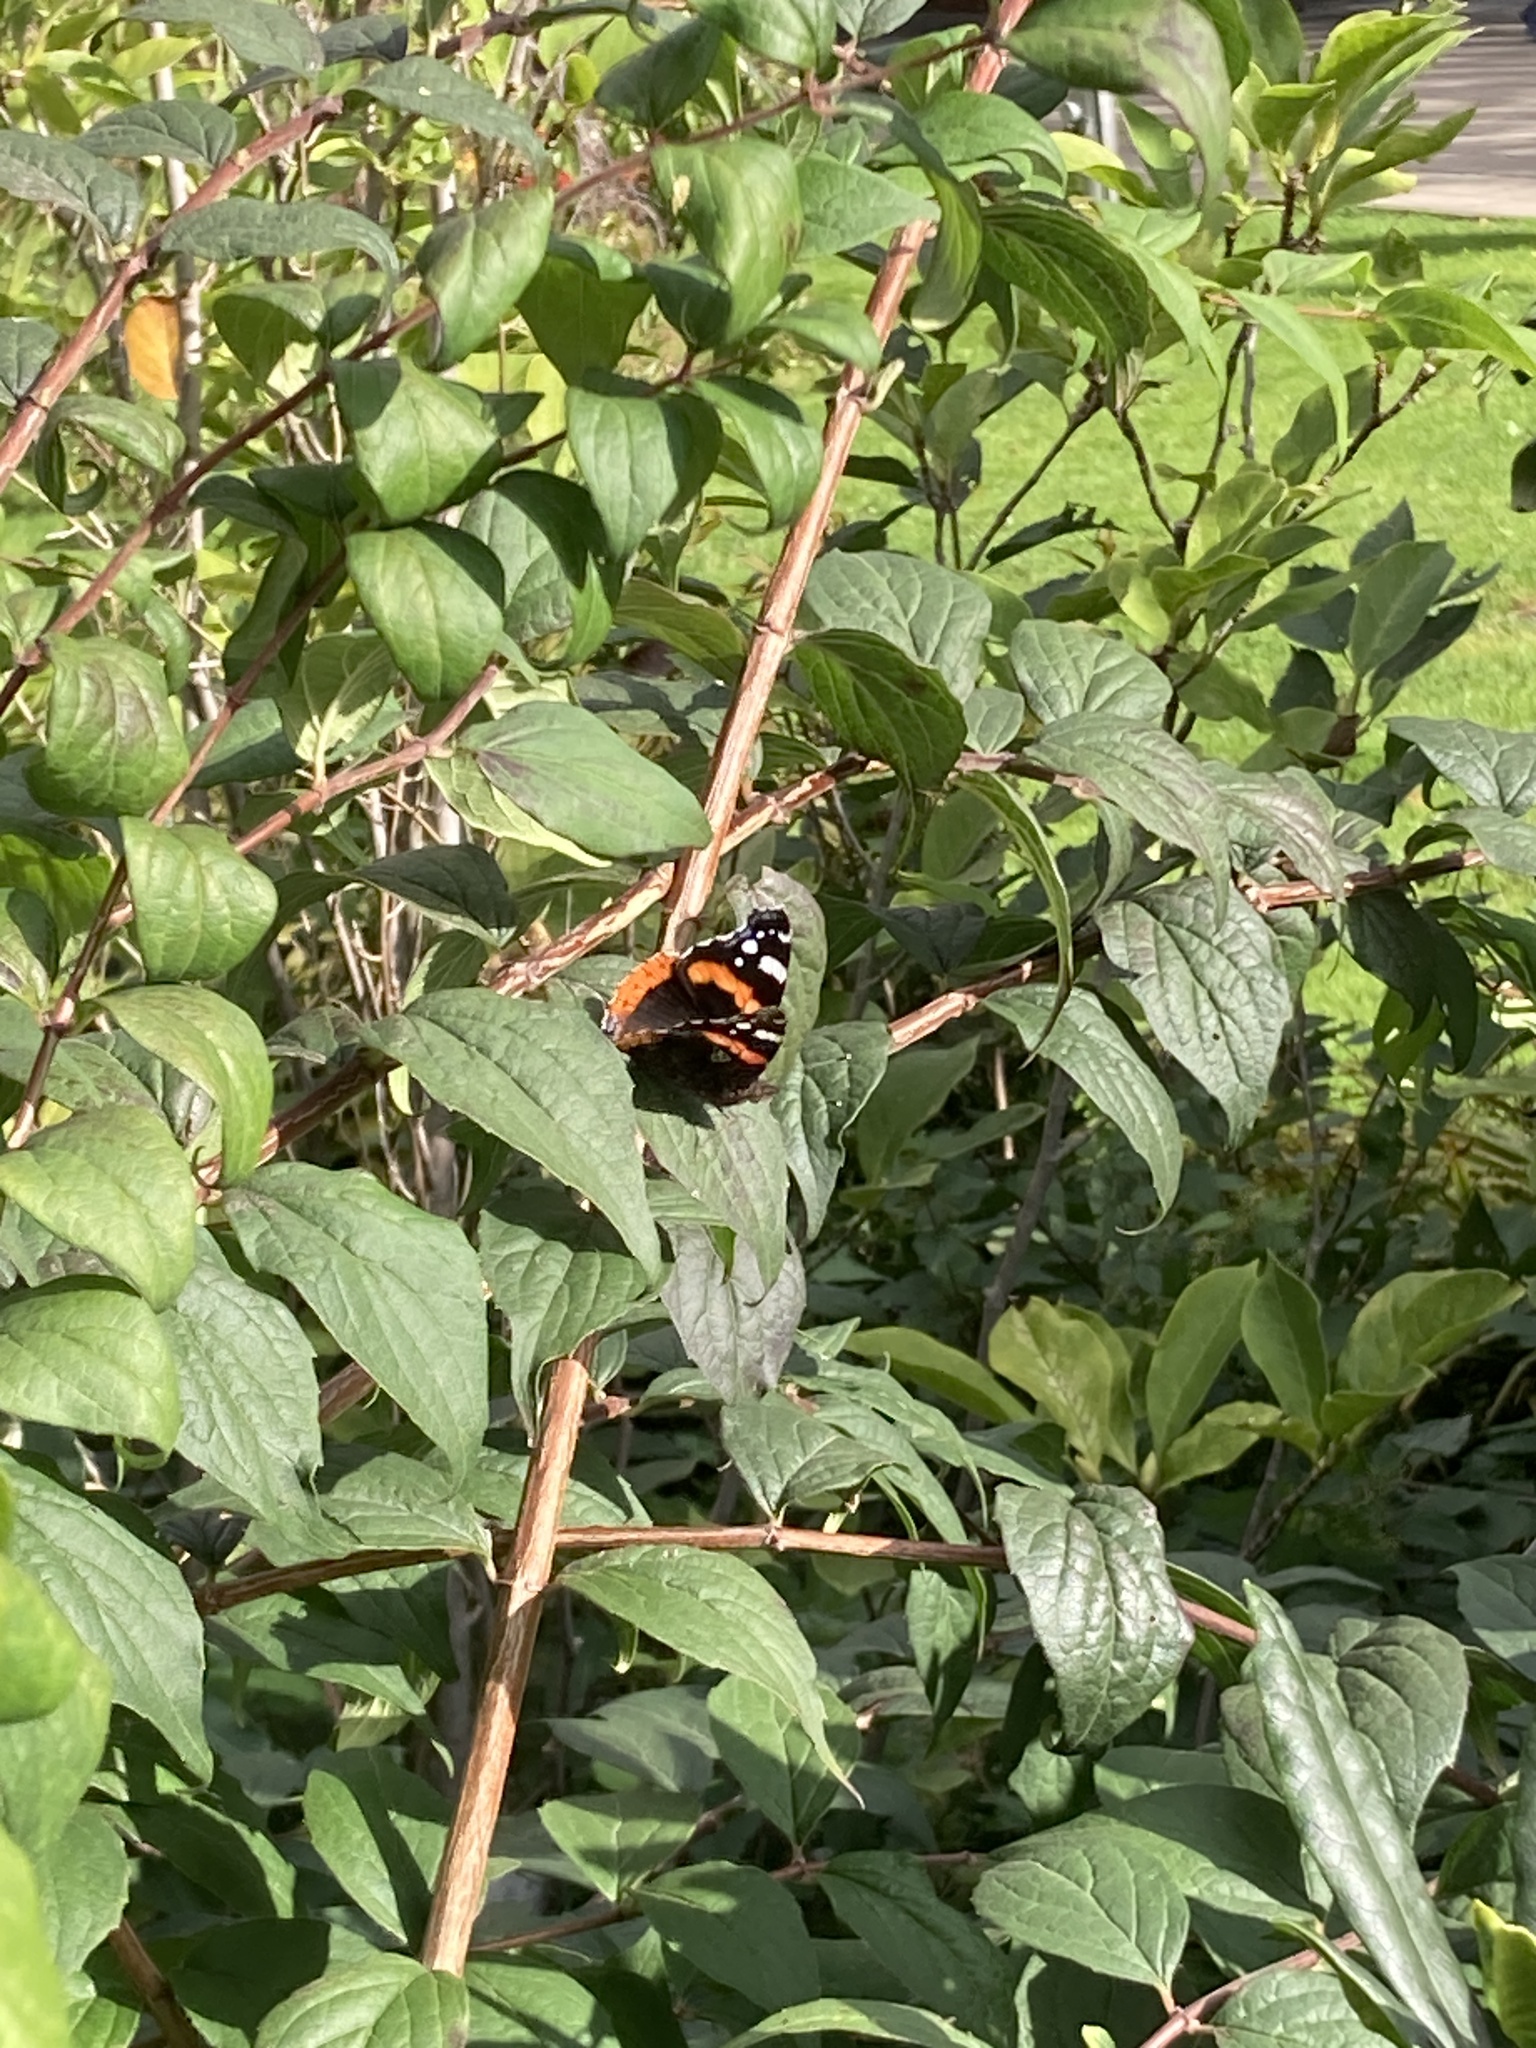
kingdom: Animalia
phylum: Arthropoda
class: Insecta
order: Lepidoptera
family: Nymphalidae
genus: Vanessa
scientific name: Vanessa atalanta
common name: Red admiral
